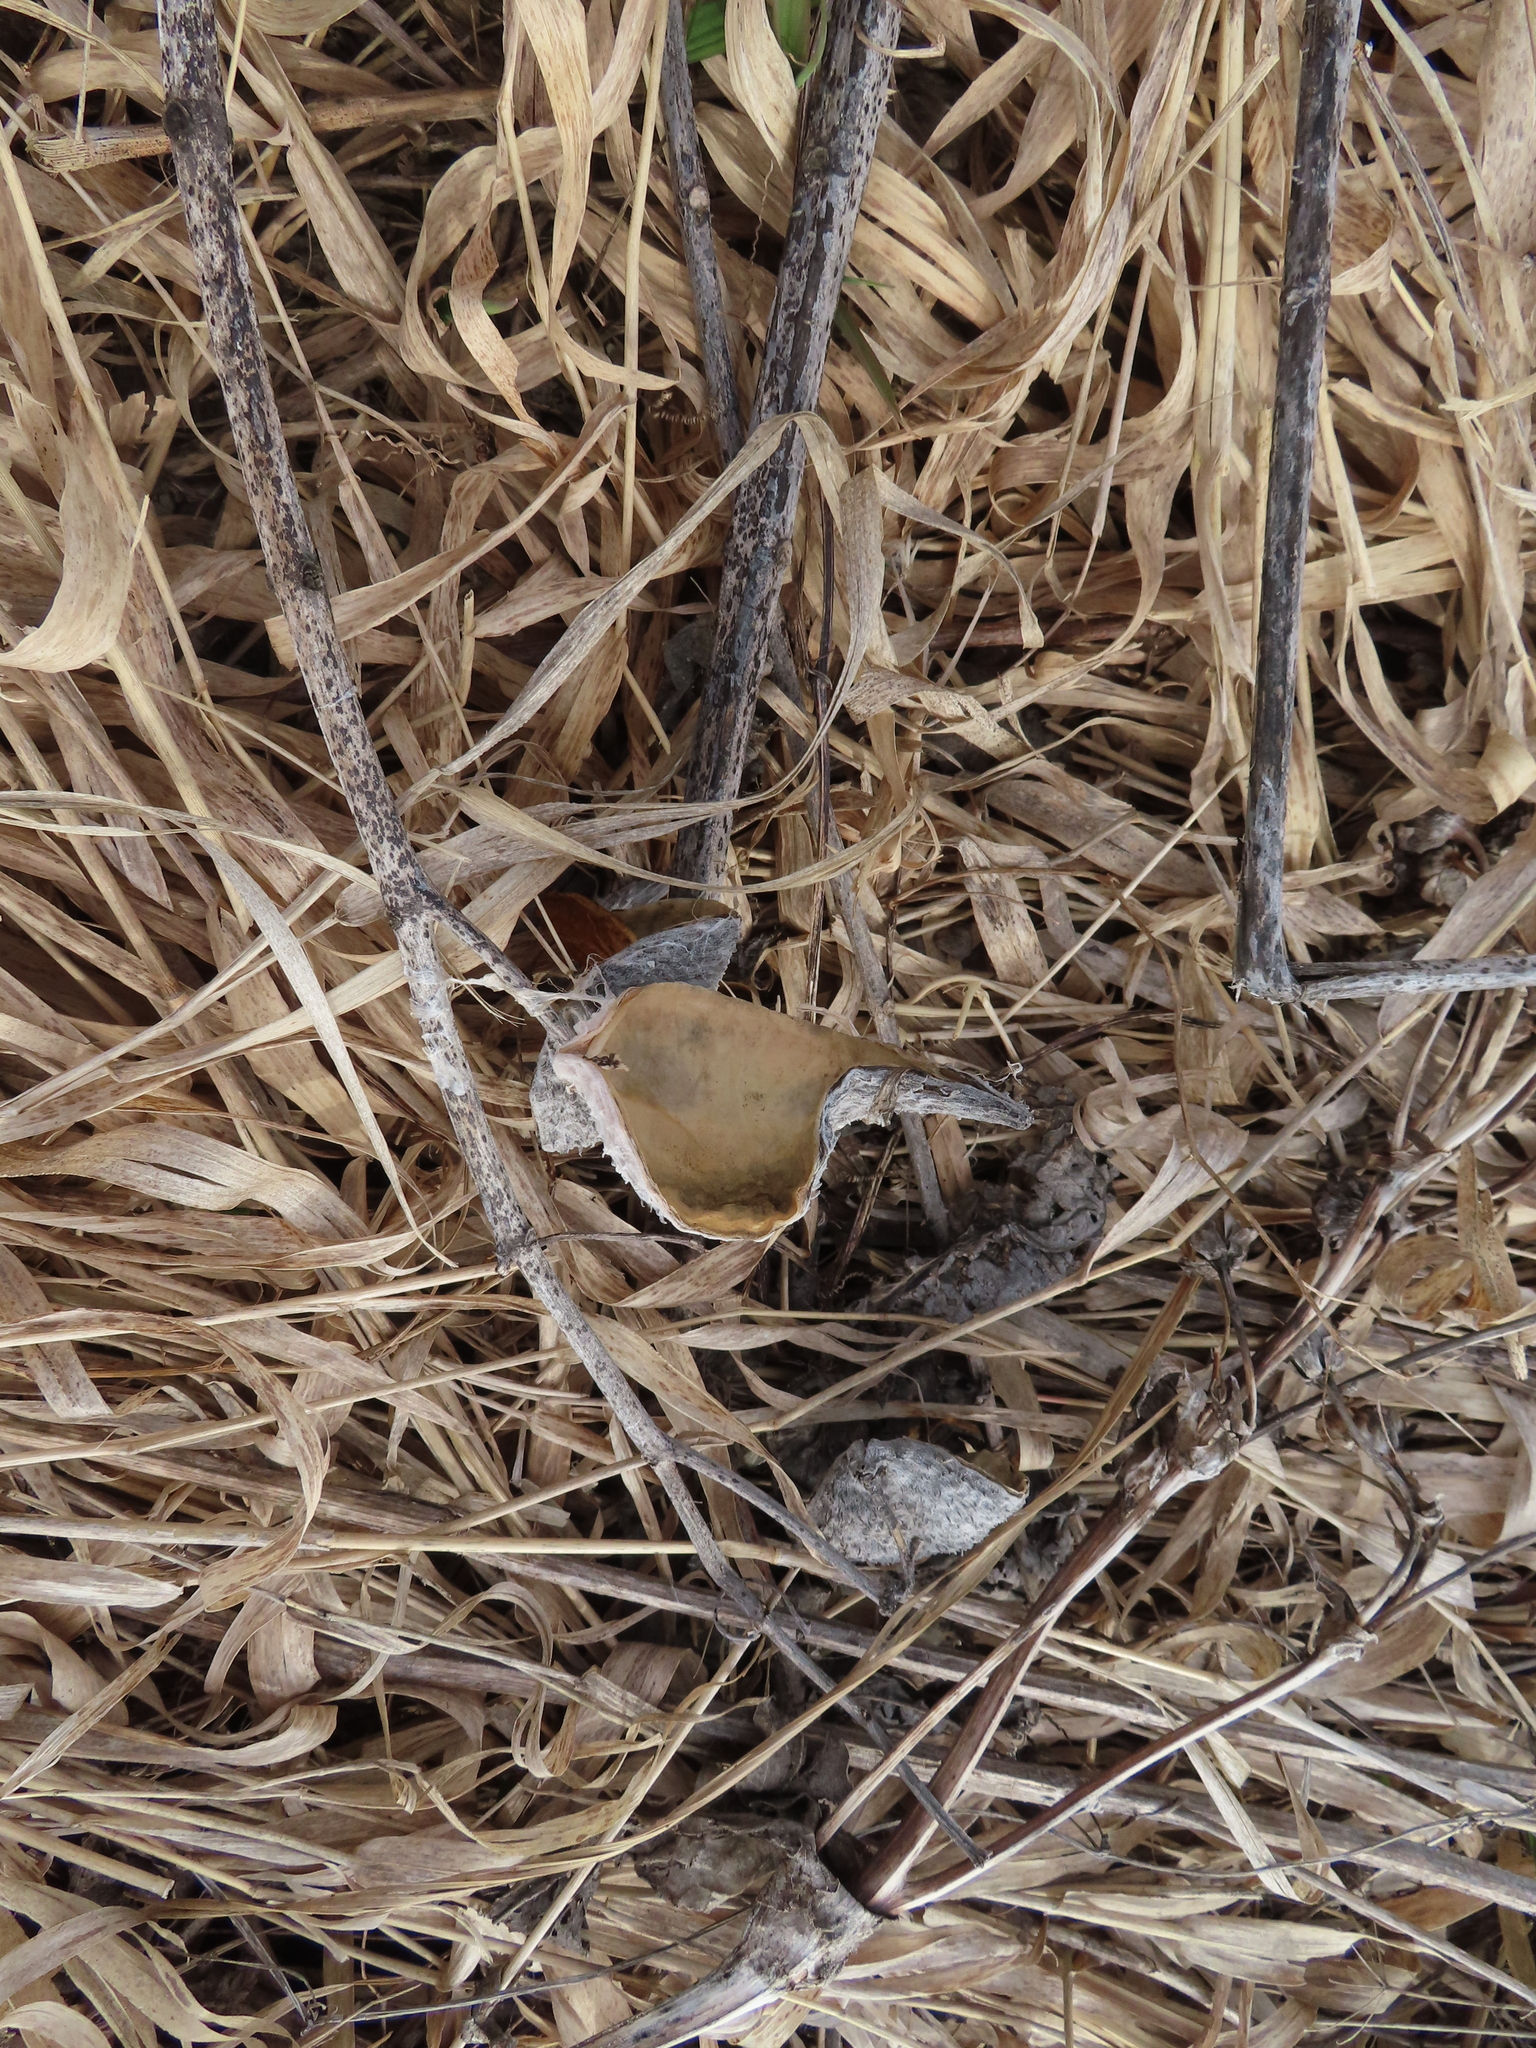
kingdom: Plantae
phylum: Tracheophyta
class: Magnoliopsida
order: Gentianales
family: Apocynaceae
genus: Asclepias
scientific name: Asclepias syriaca
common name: Common milkweed
